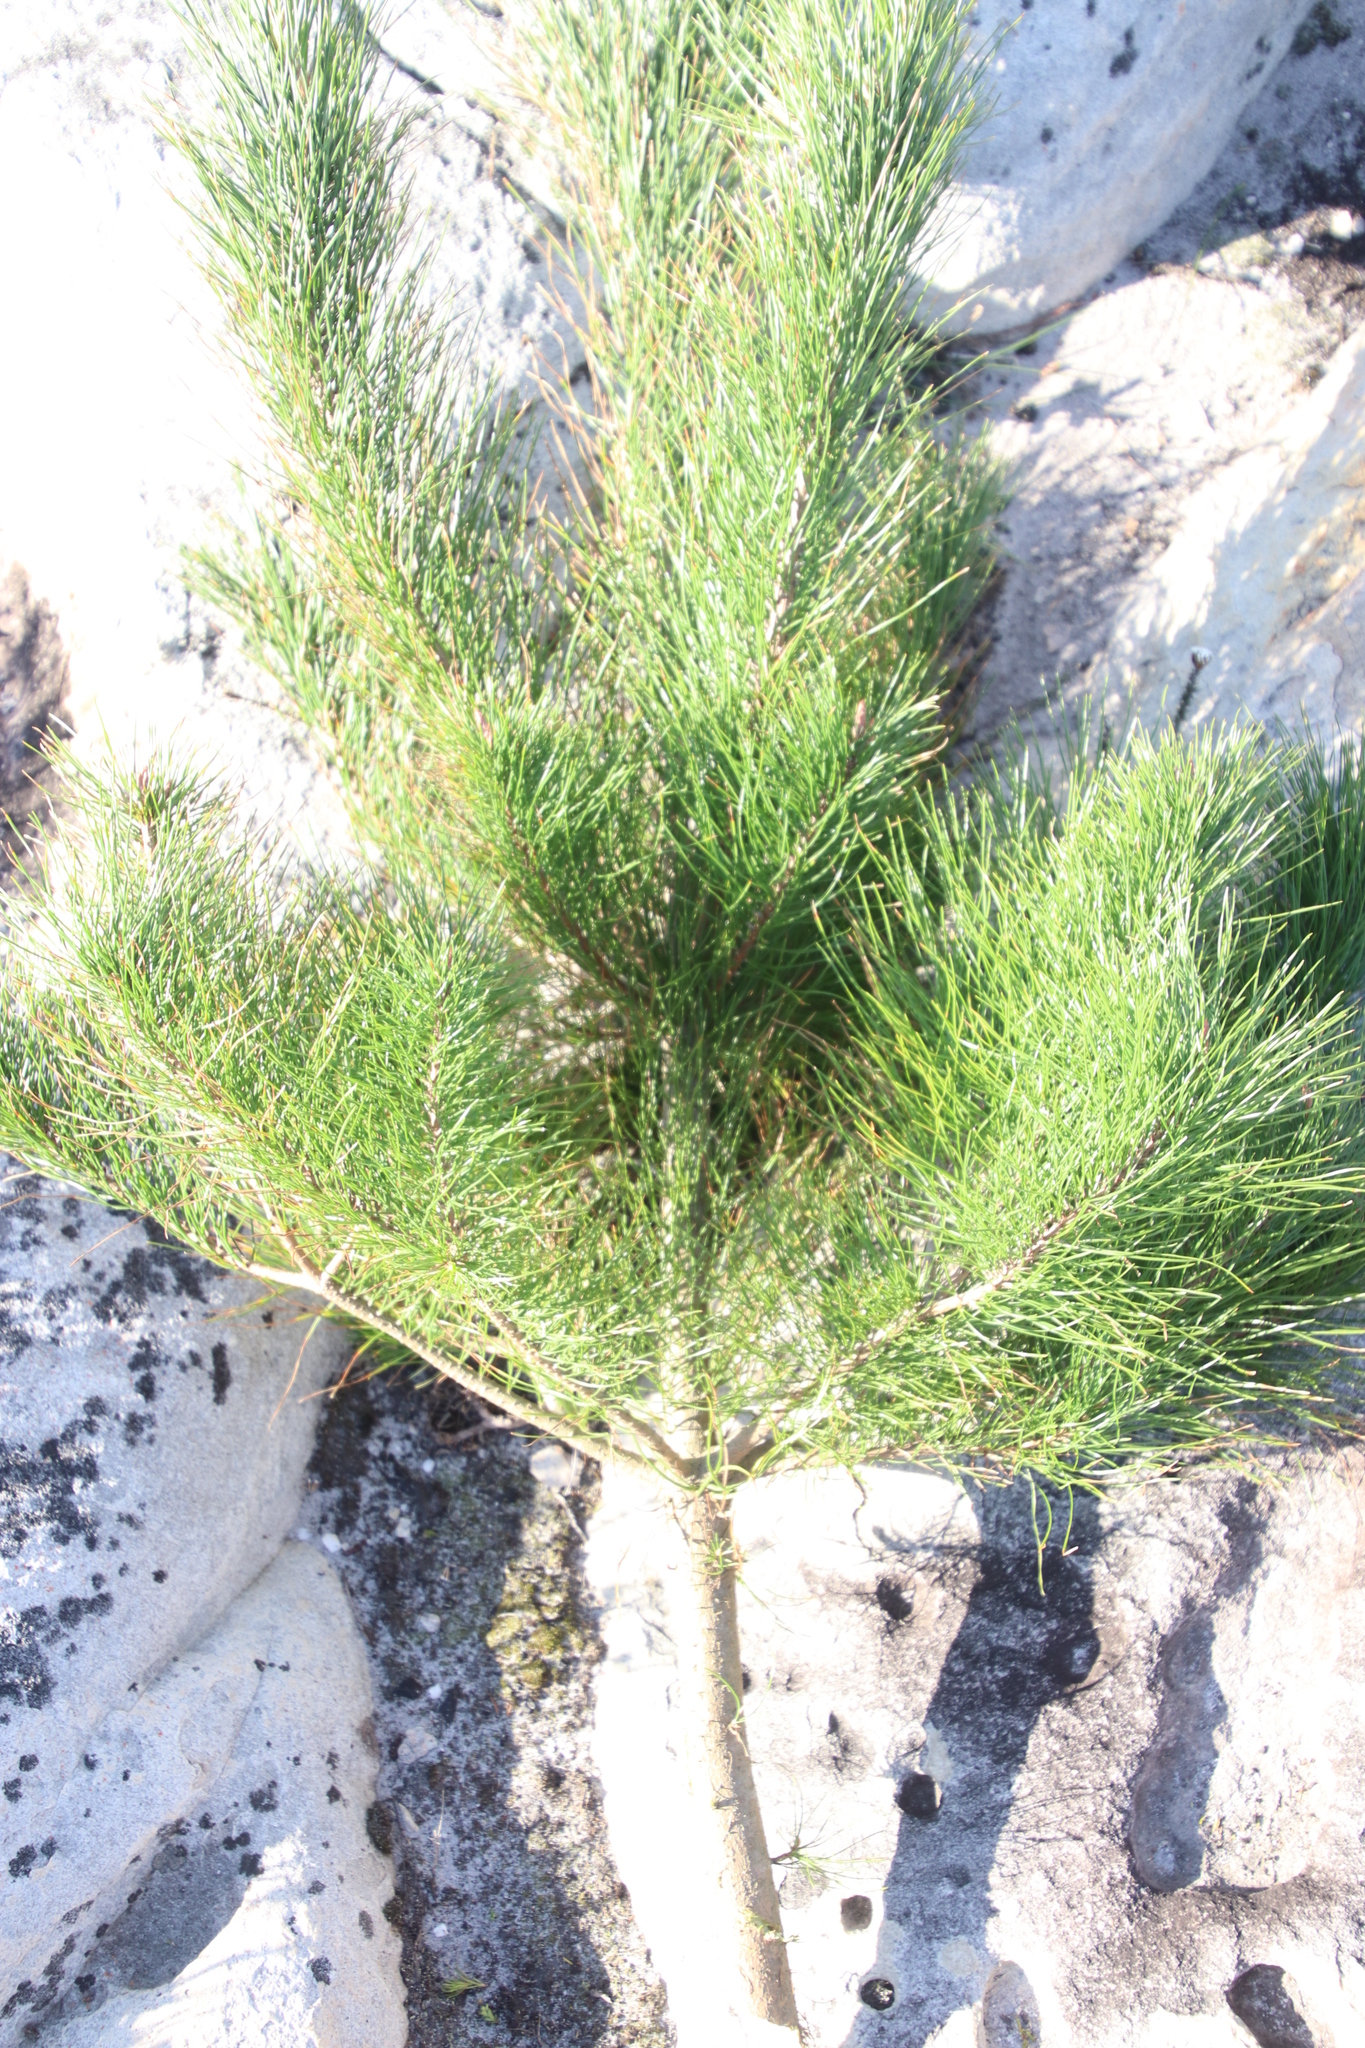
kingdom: Plantae
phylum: Tracheophyta
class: Pinopsida
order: Pinales
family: Pinaceae
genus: Pinus
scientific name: Pinus radiata
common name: Monterey pine
